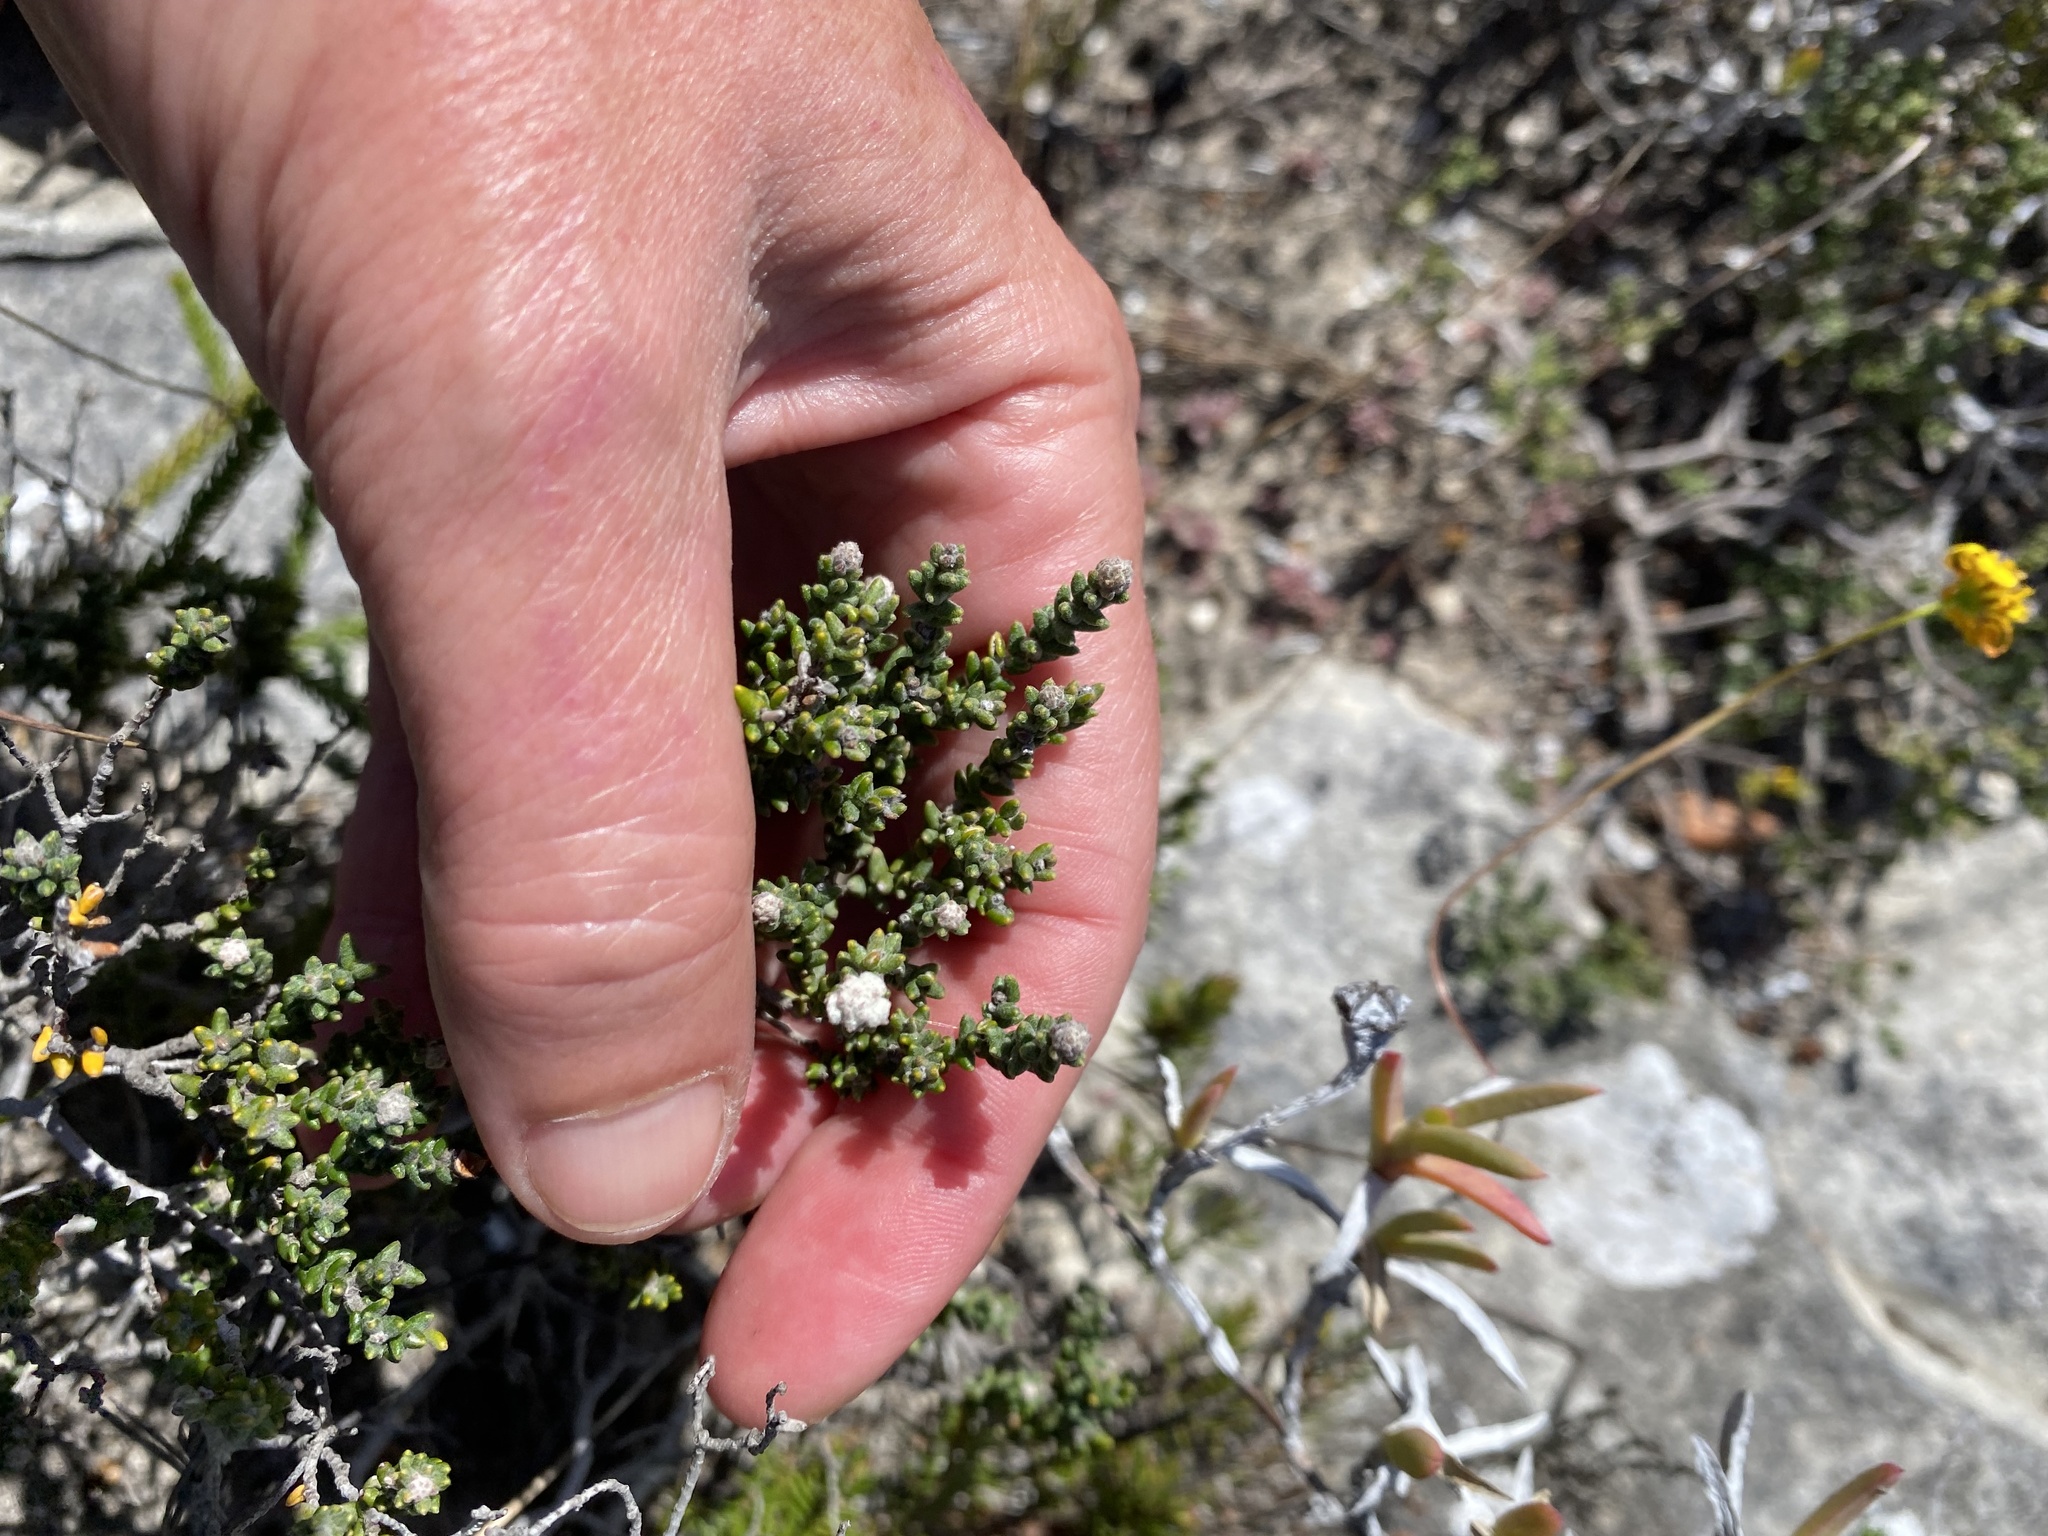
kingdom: Plantae
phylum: Tracheophyta
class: Magnoliopsida
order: Rosales
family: Rhamnaceae
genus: Phylica
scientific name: Phylica incurvata
